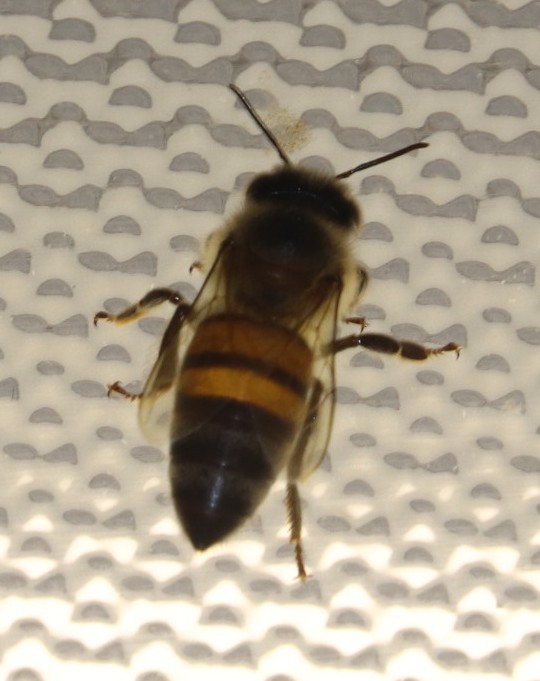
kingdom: Animalia
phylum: Arthropoda
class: Insecta
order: Hymenoptera
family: Apidae
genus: Apis
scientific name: Apis mellifera
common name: Honey bee
